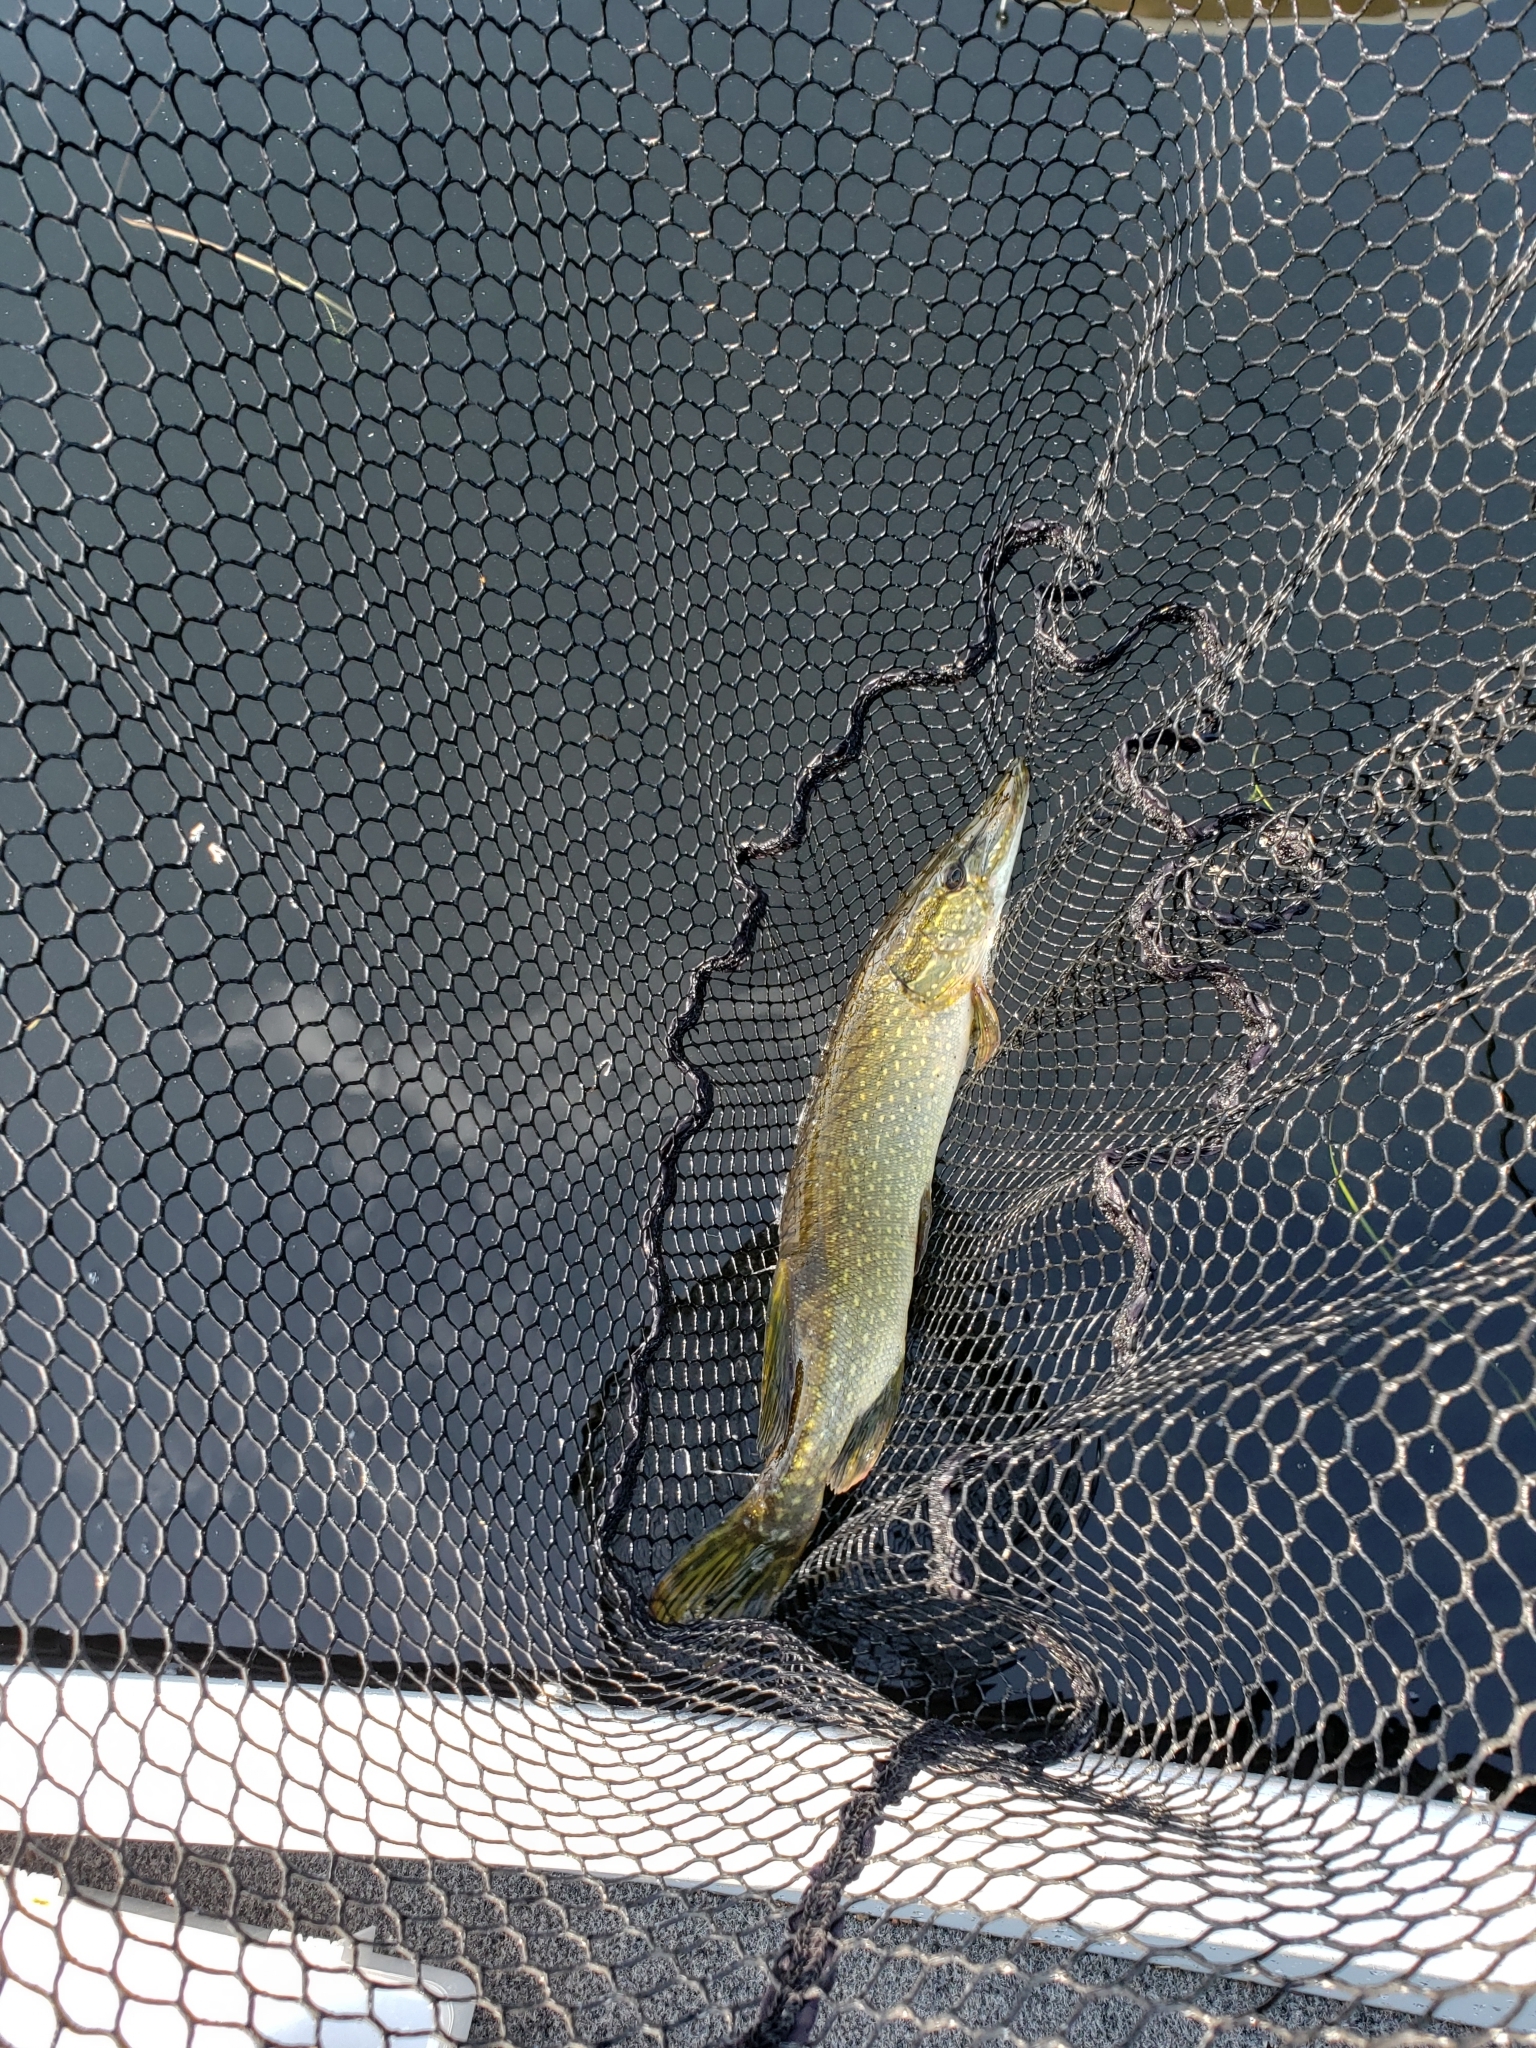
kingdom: Animalia
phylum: Chordata
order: Esociformes
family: Esocidae
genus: Esox
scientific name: Esox lucius
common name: Northern pike
